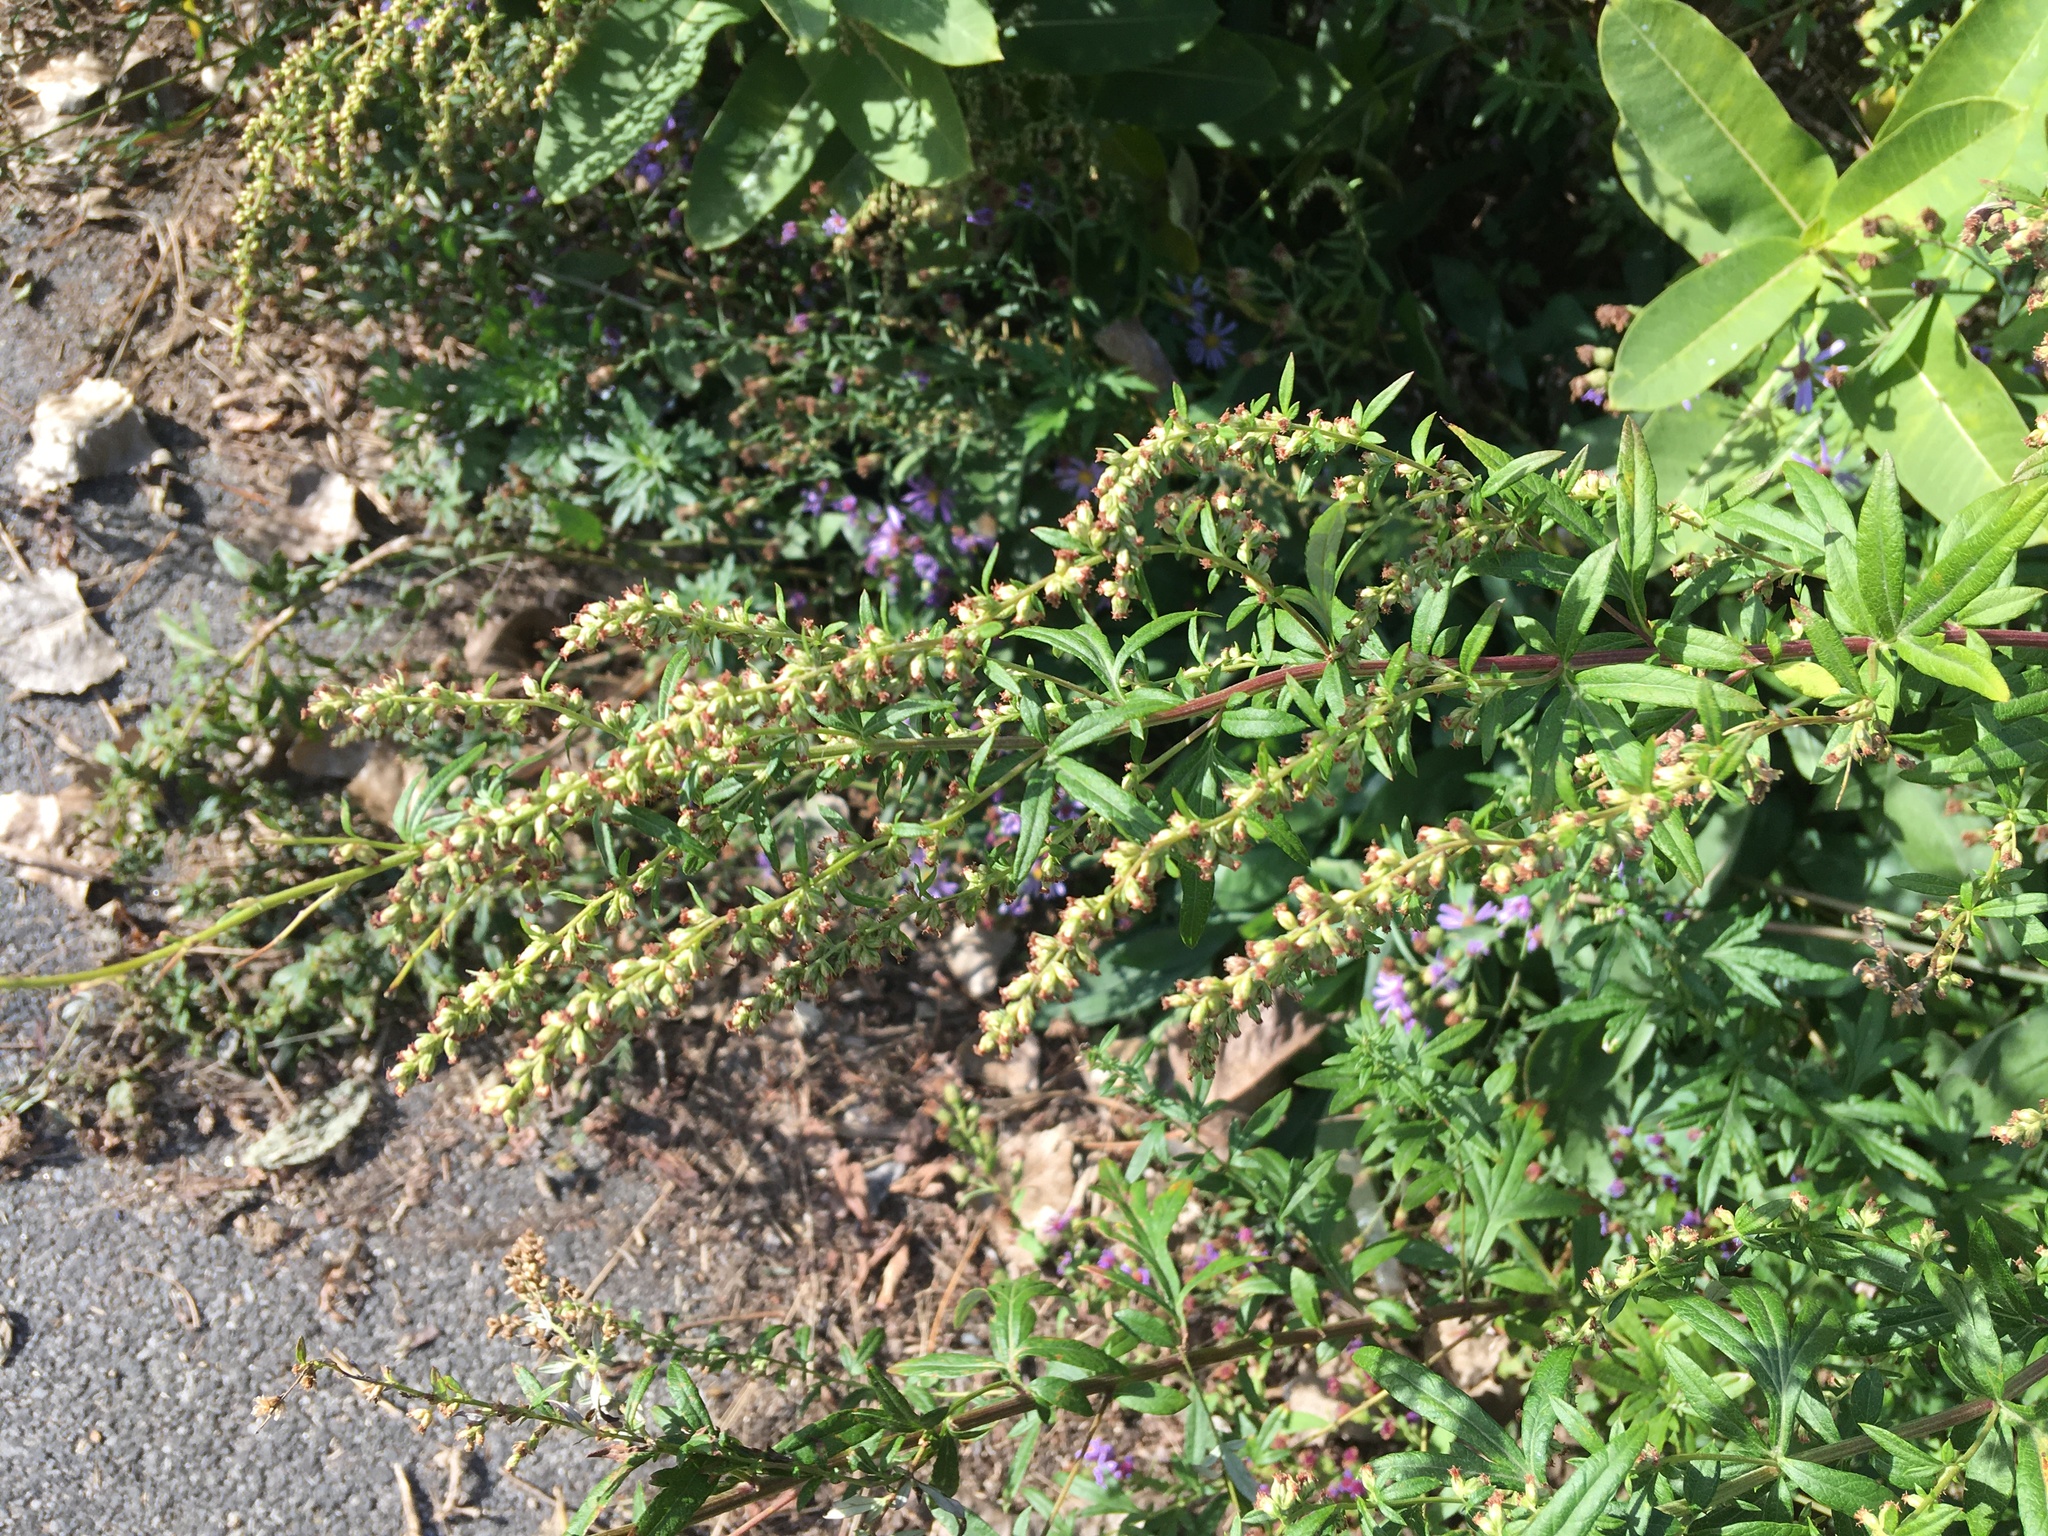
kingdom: Plantae
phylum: Tracheophyta
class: Magnoliopsida
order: Asterales
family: Asteraceae
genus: Artemisia
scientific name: Artemisia vulgaris
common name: Mugwort
